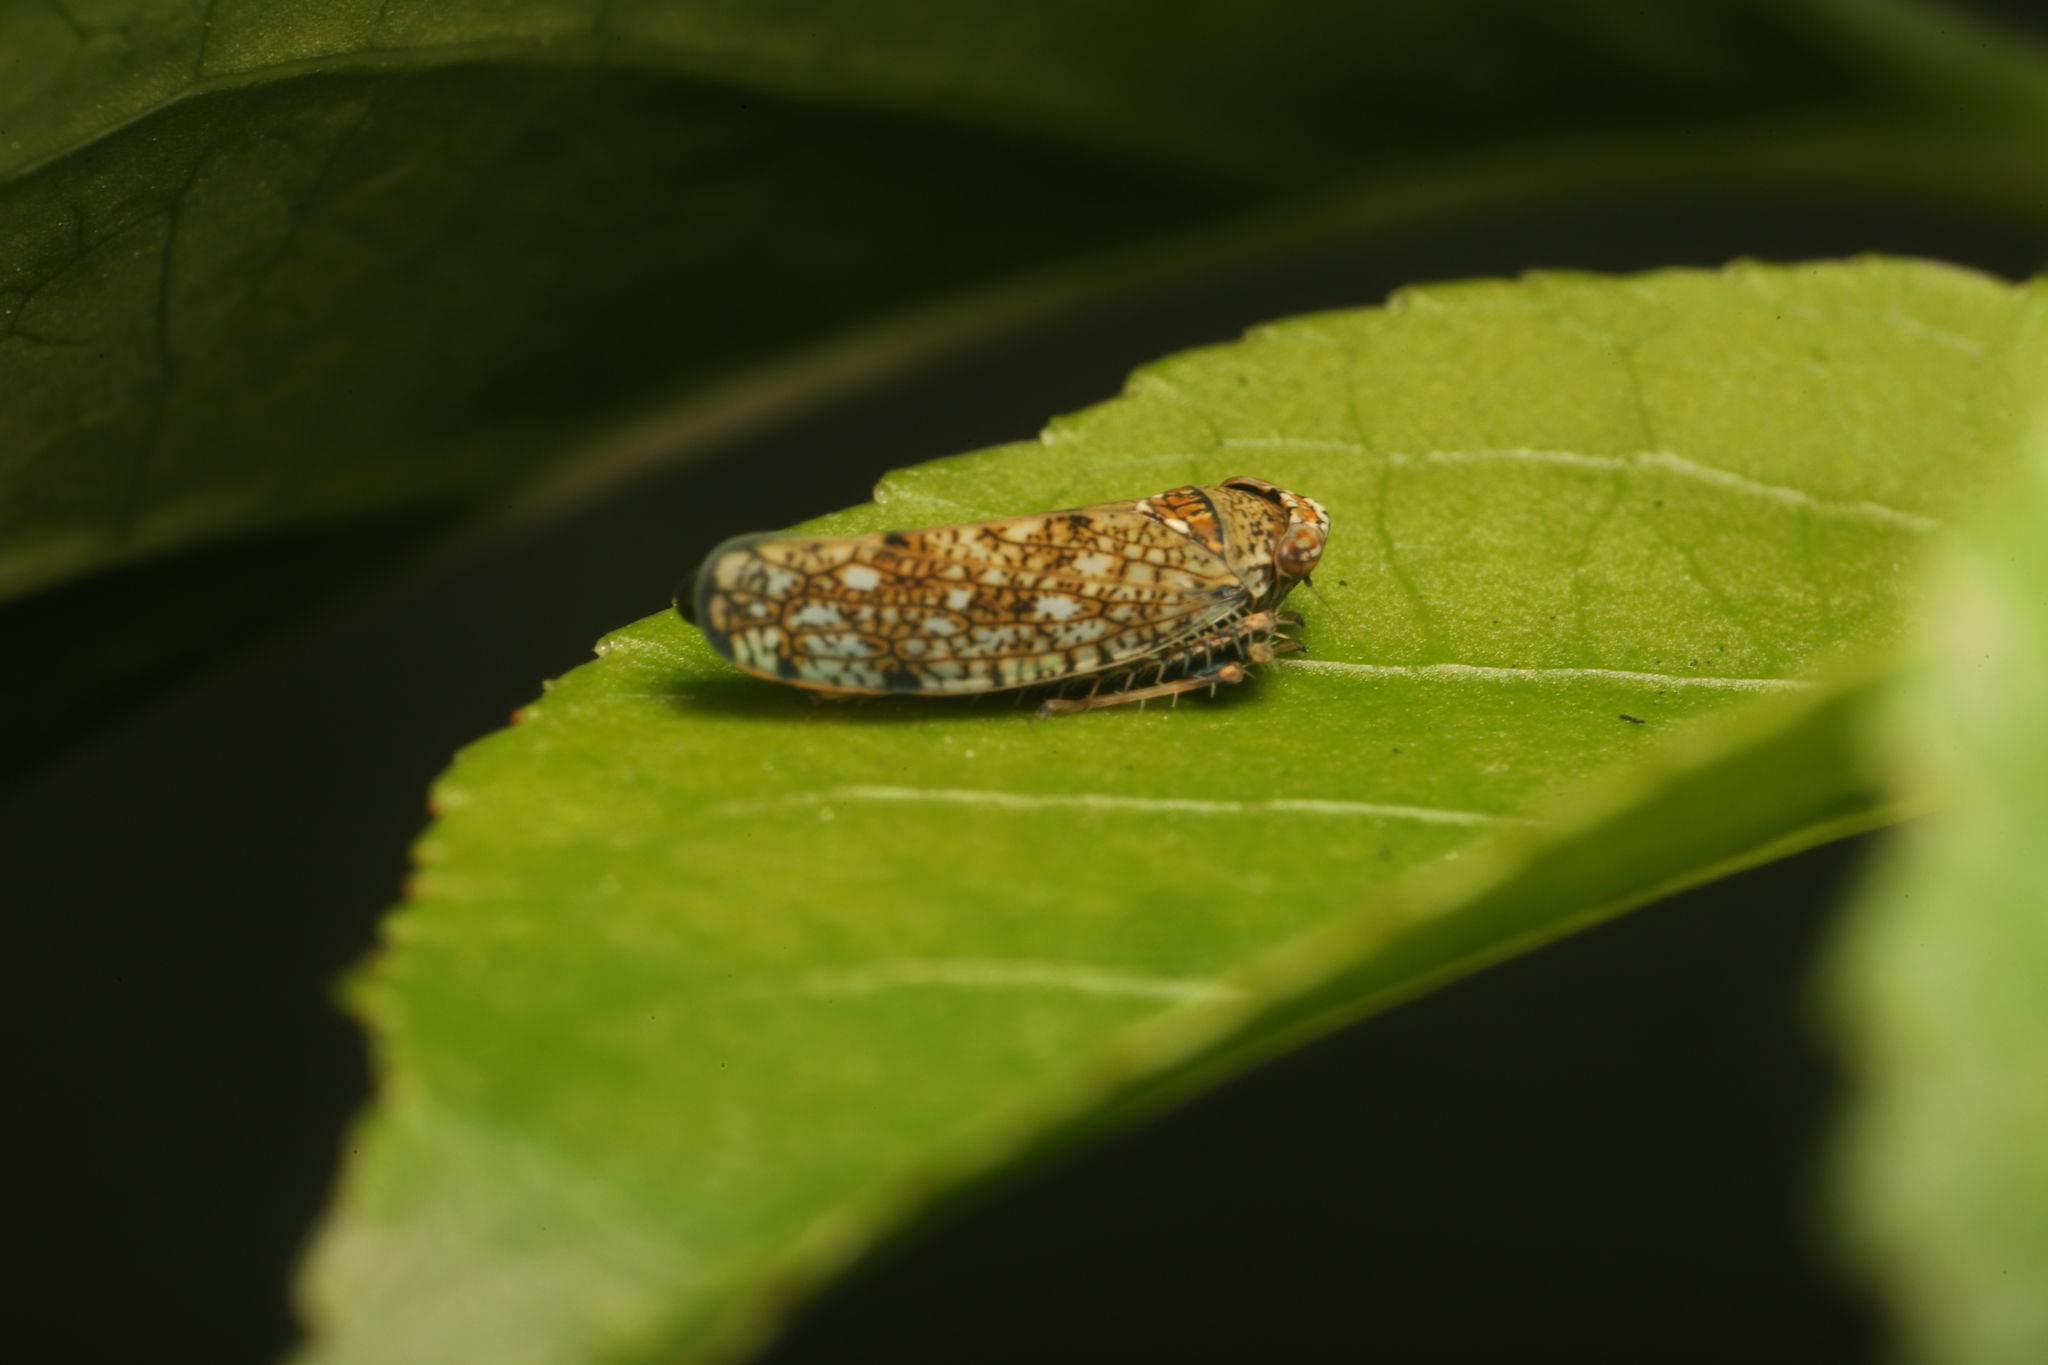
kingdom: Animalia
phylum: Arthropoda
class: Insecta
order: Hemiptera
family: Cicadellidae
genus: Orientus
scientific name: Orientus ishidae
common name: Japanese leafhopper
